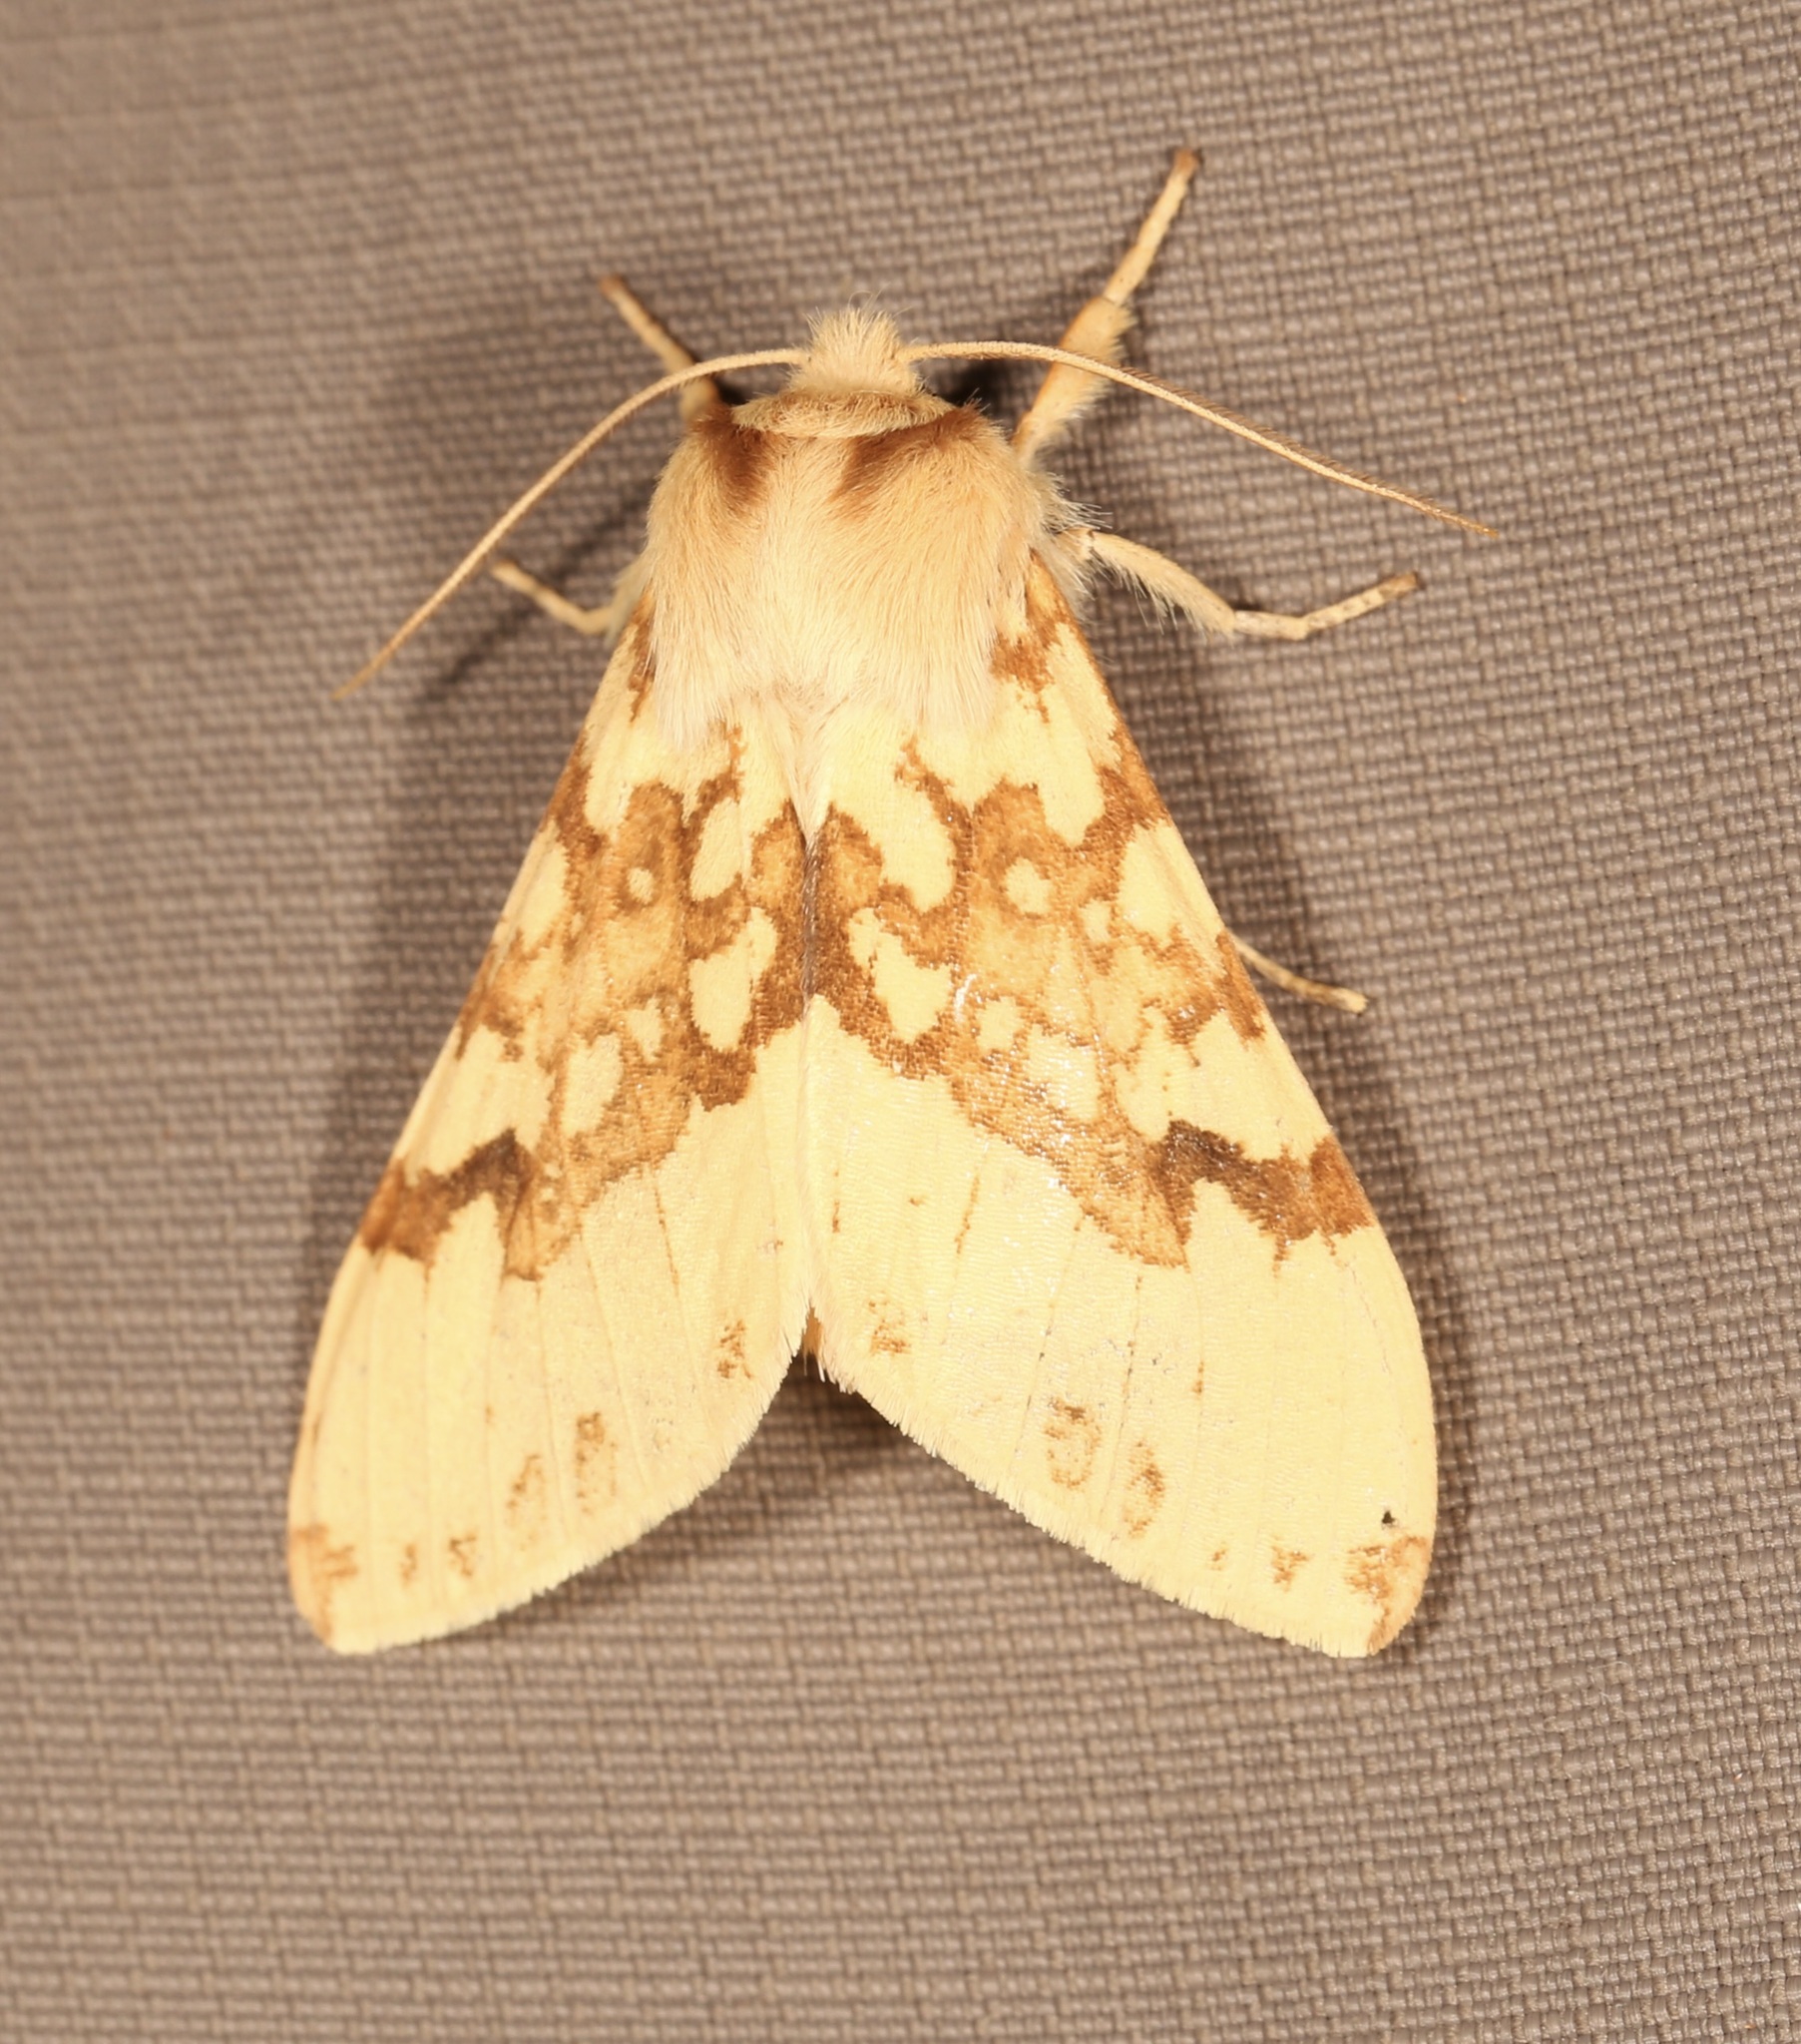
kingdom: Animalia
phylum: Arthropoda
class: Insecta
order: Lepidoptera
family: Erebidae
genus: Lophocampa
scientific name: Lophocampa maculata
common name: Spotted tussock moth
